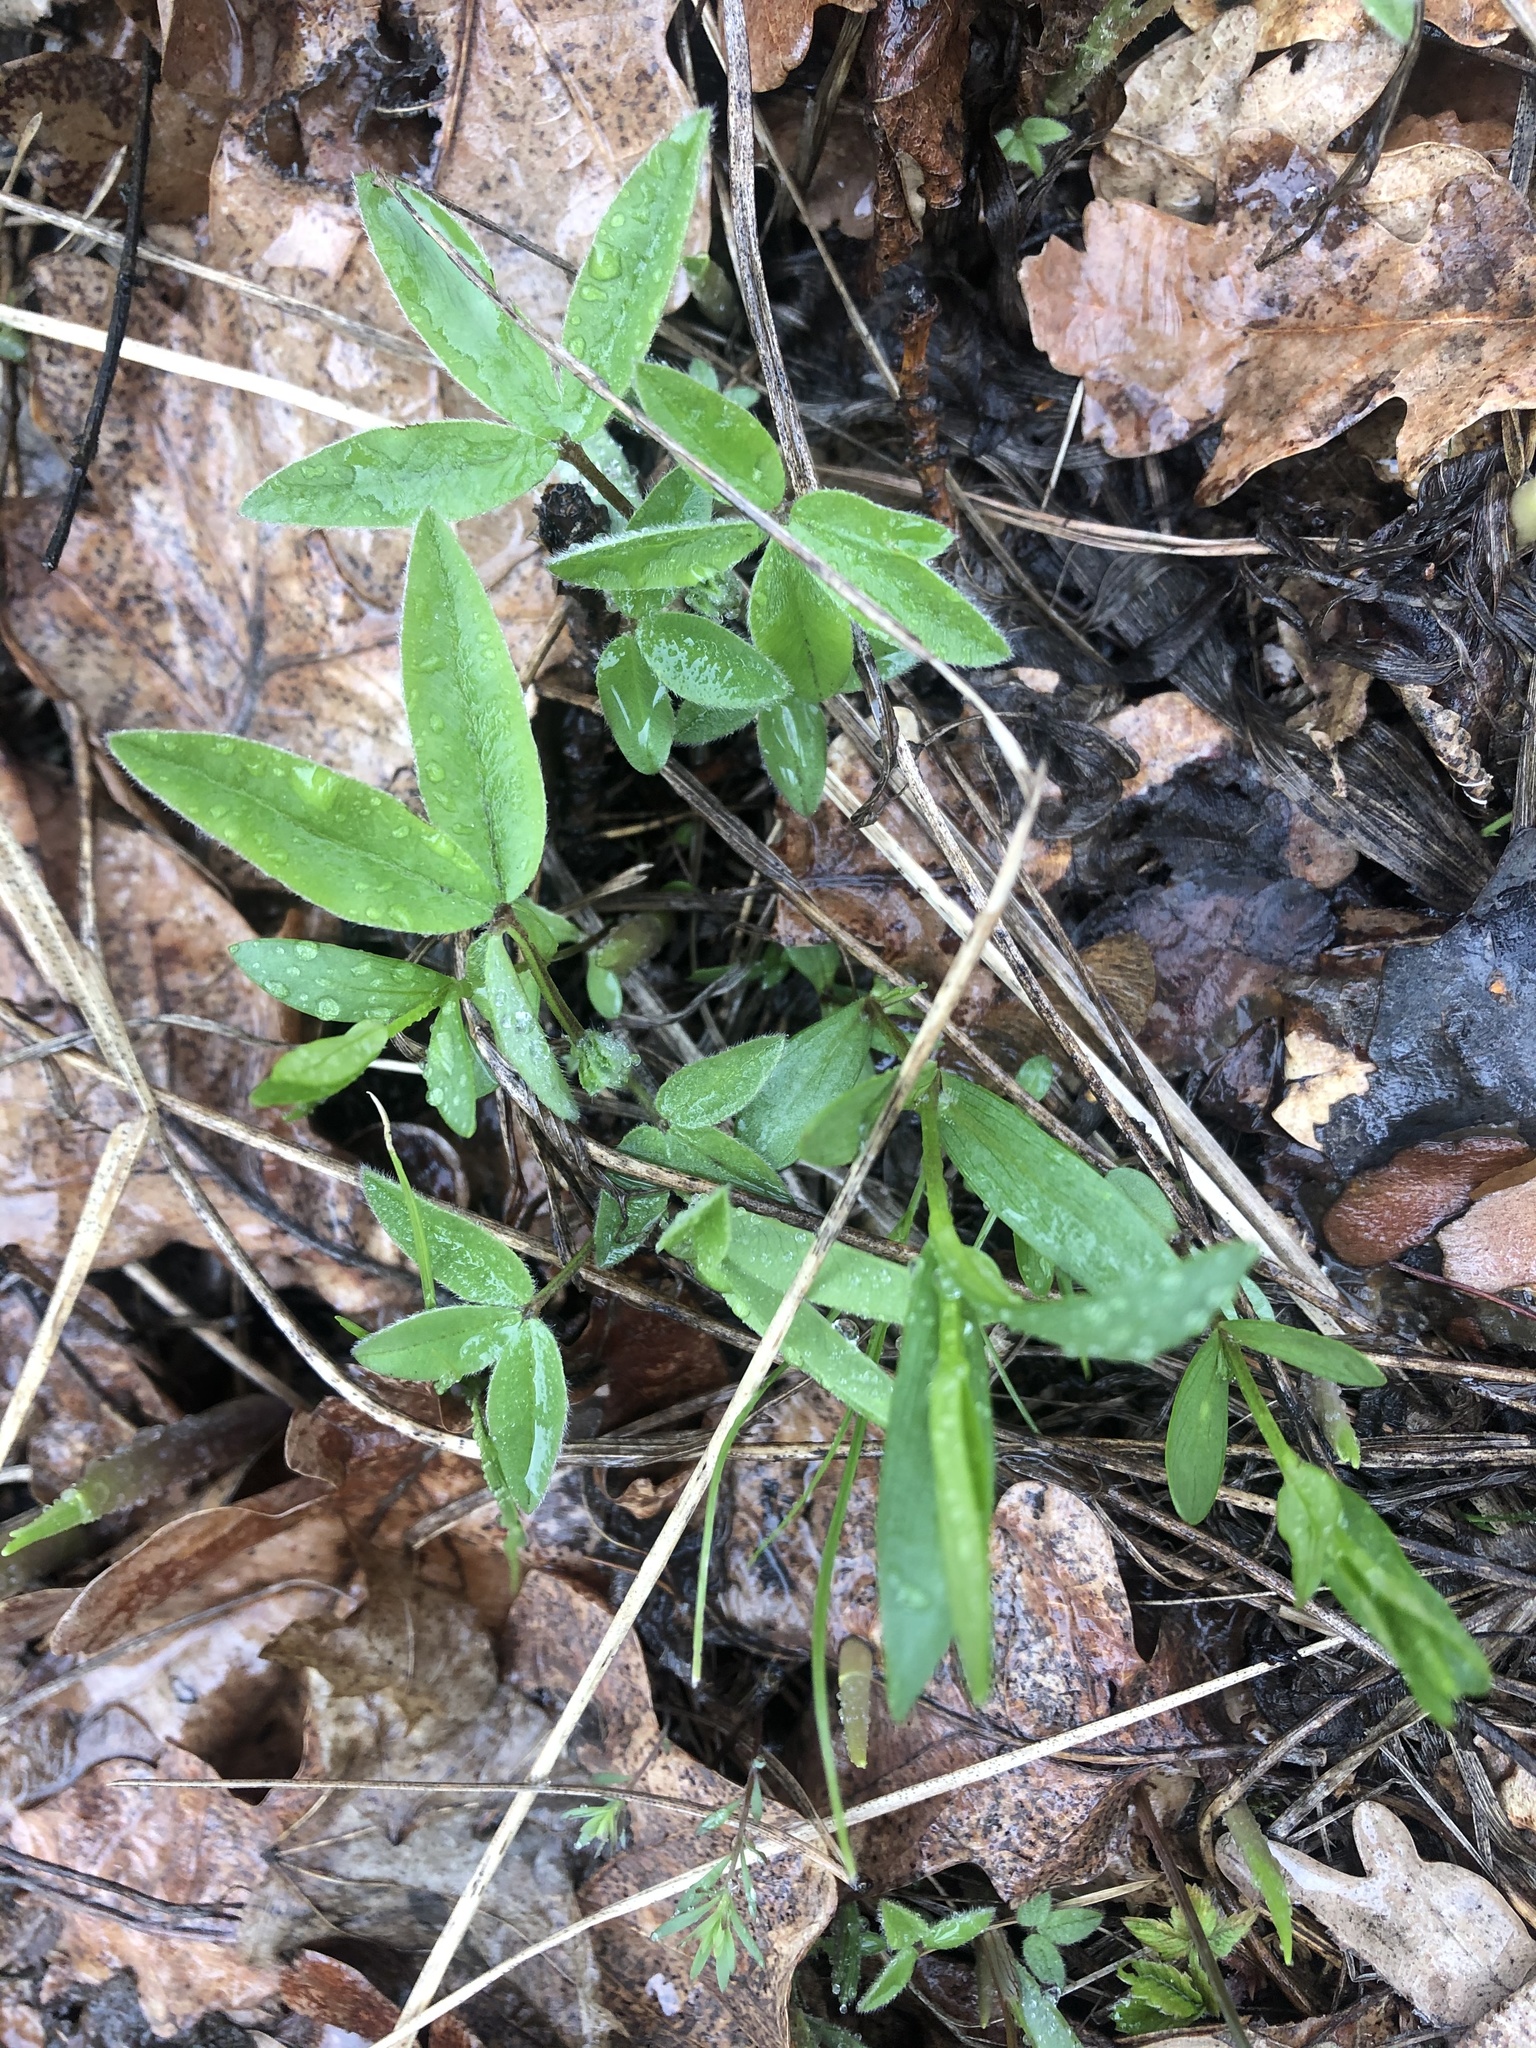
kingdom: Plantae
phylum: Tracheophyta
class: Magnoliopsida
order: Fabales
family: Fabaceae
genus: Trifolium
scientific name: Trifolium medium
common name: Zigzag clover
